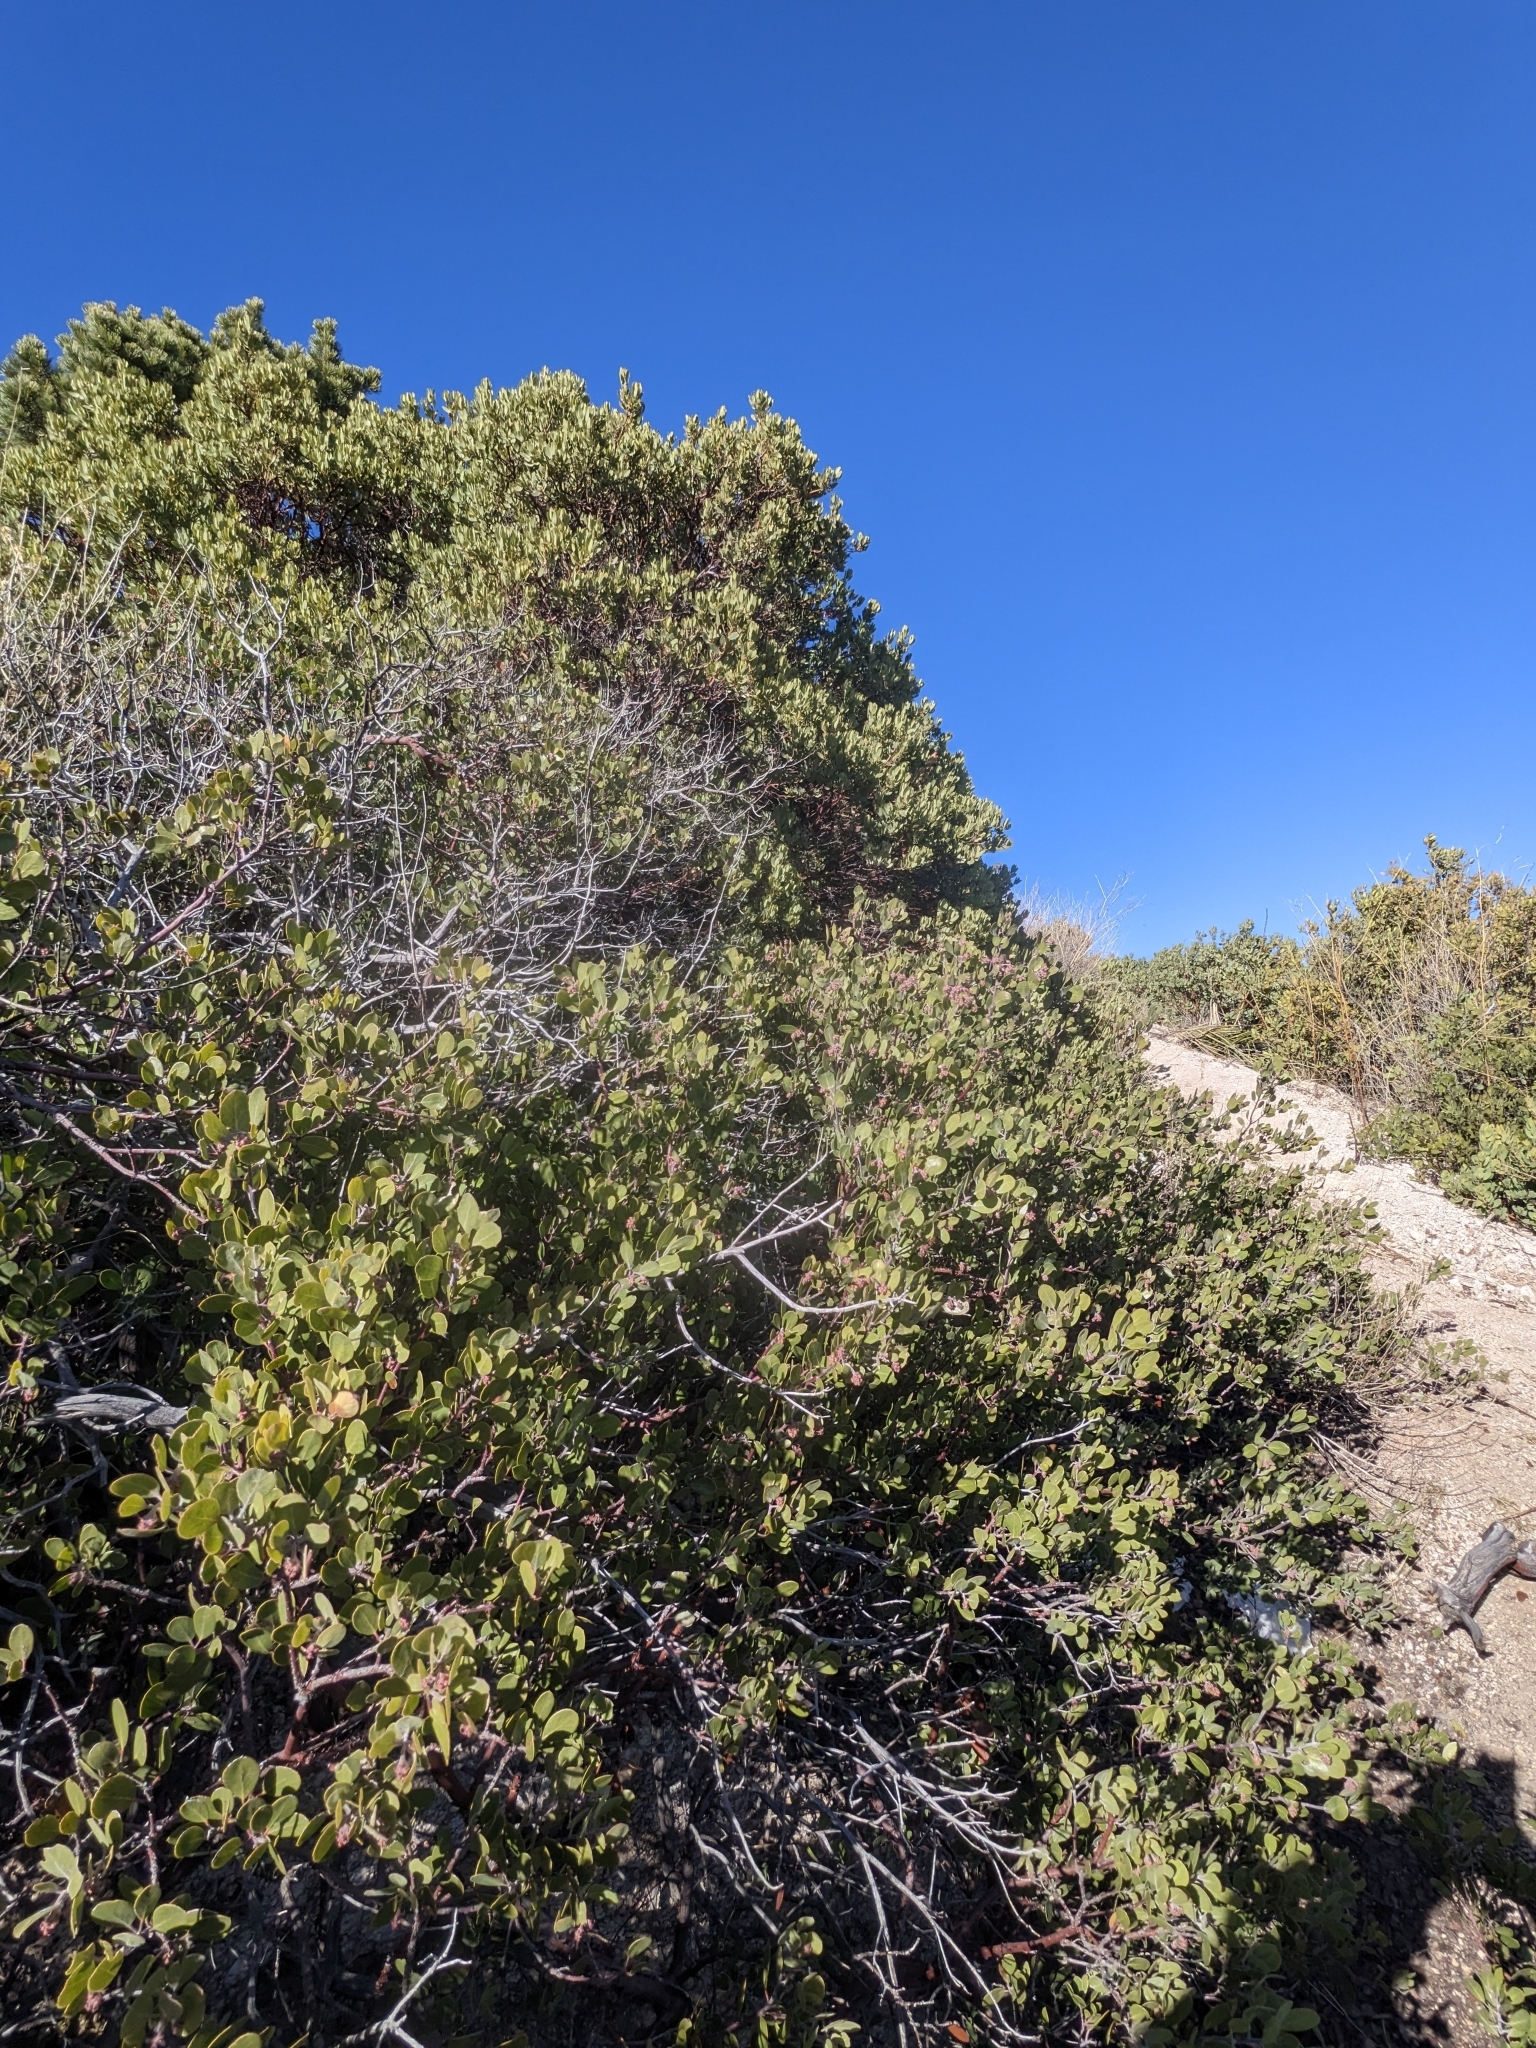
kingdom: Plantae
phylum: Tracheophyta
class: Magnoliopsida
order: Ericales
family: Ericaceae
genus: Arctostaphylos
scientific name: Arctostaphylos pungens
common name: Mexican manzanita
